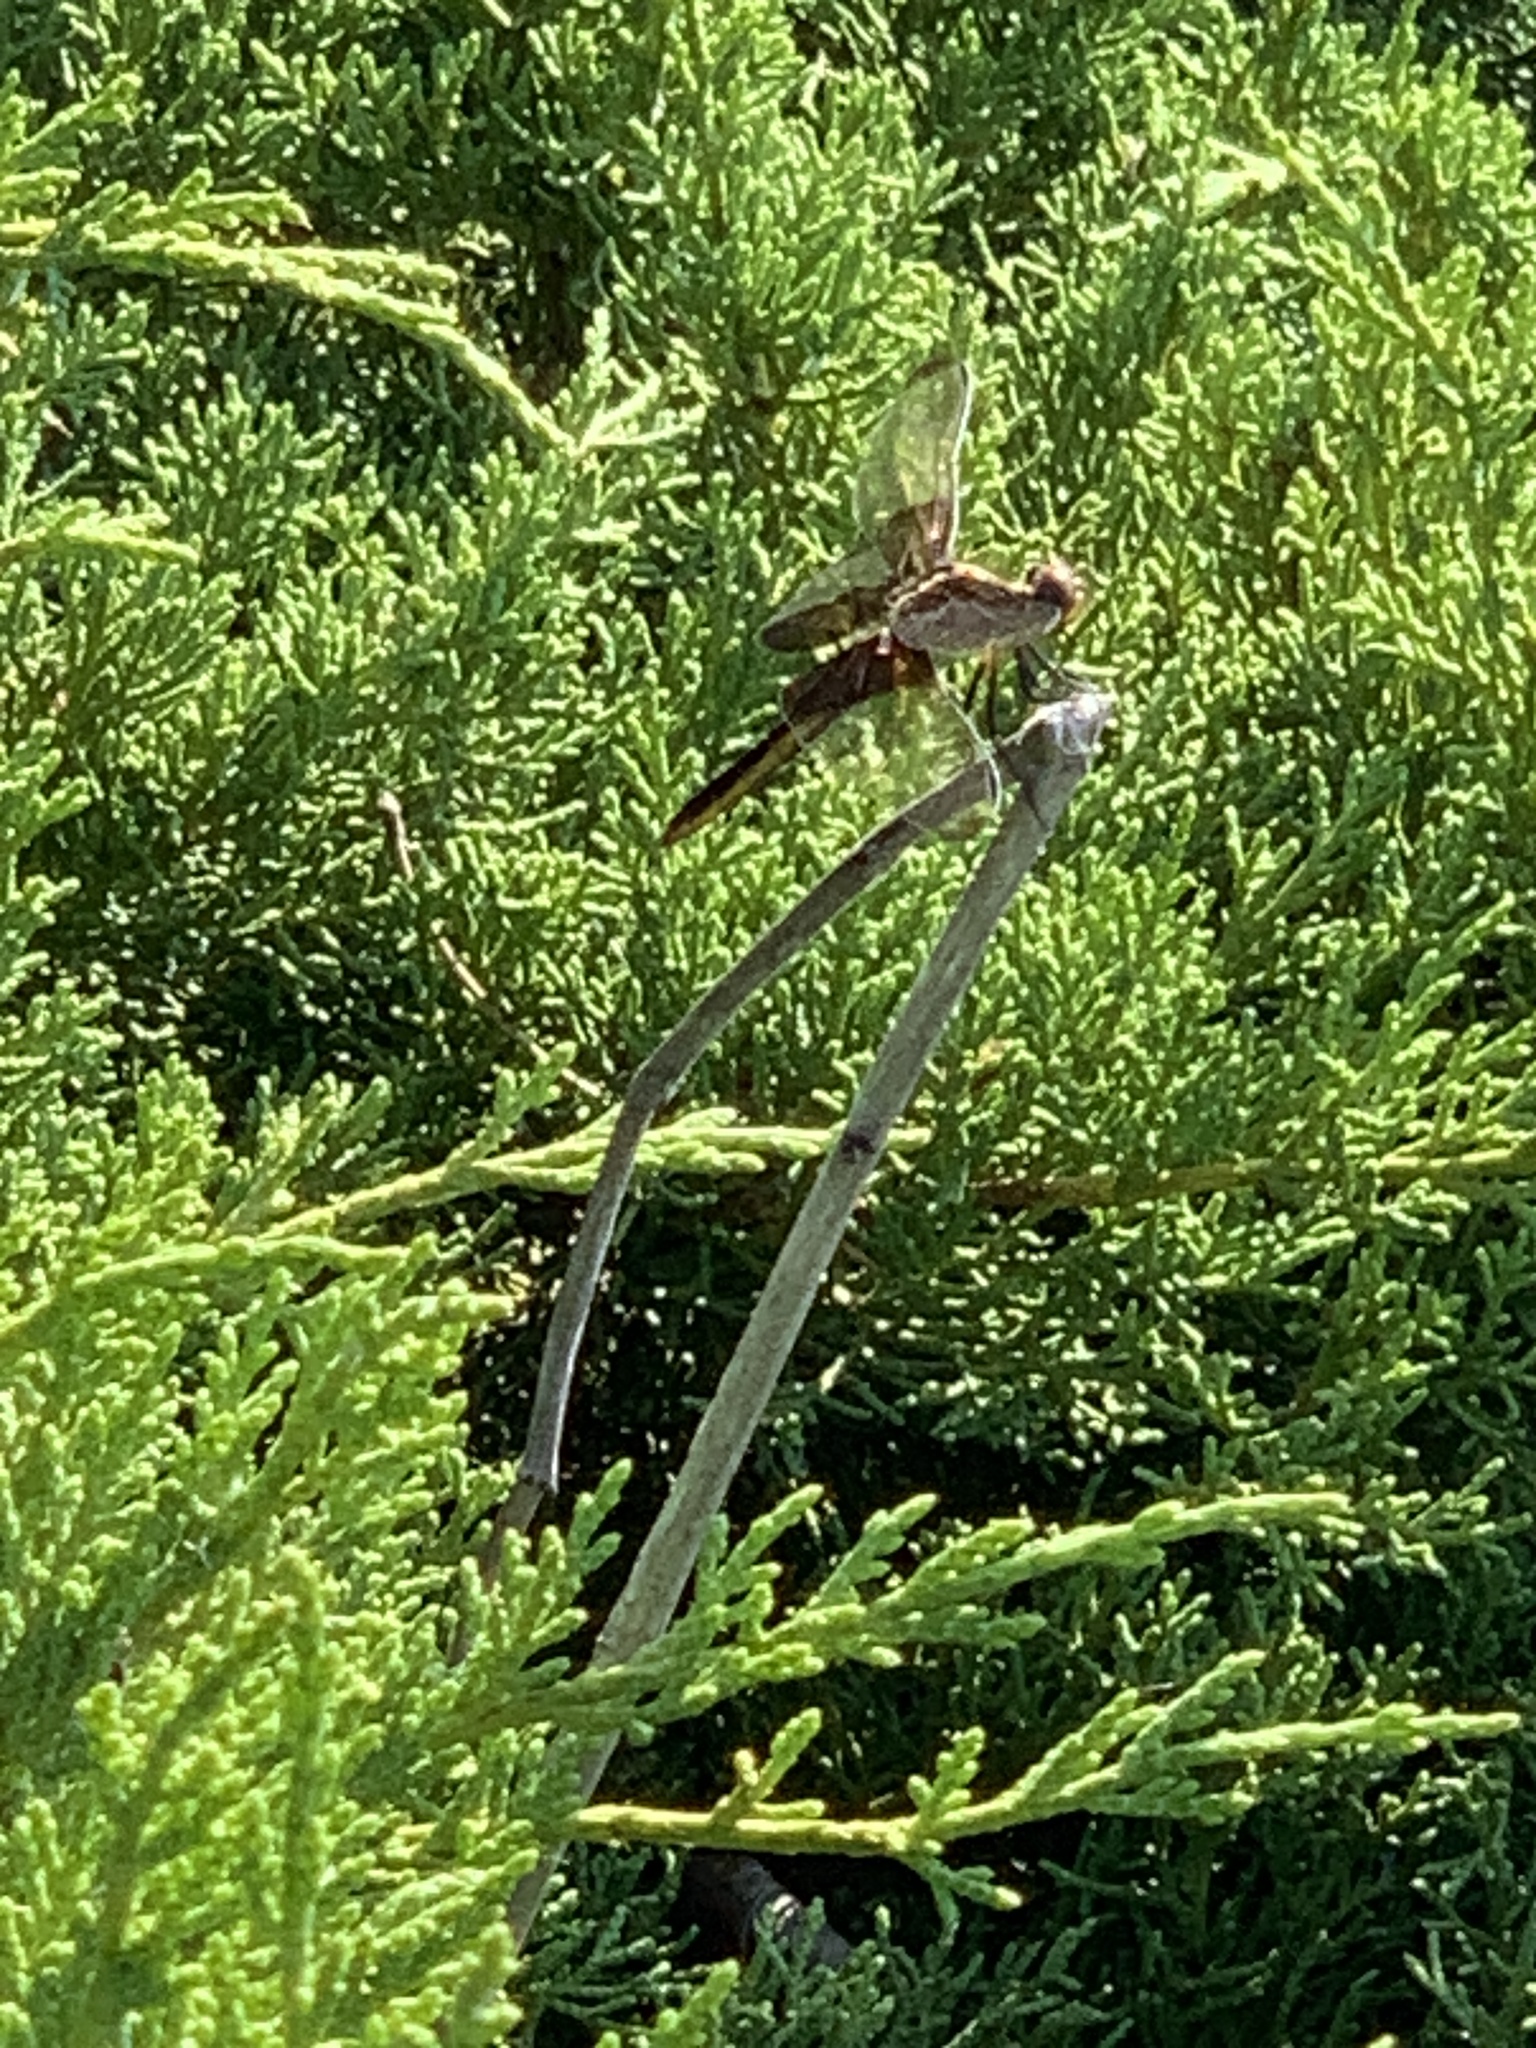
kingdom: Animalia
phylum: Arthropoda
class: Insecta
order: Odonata
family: Libellulidae
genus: Libellula
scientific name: Libellula luctuosa
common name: Widow skimmer
